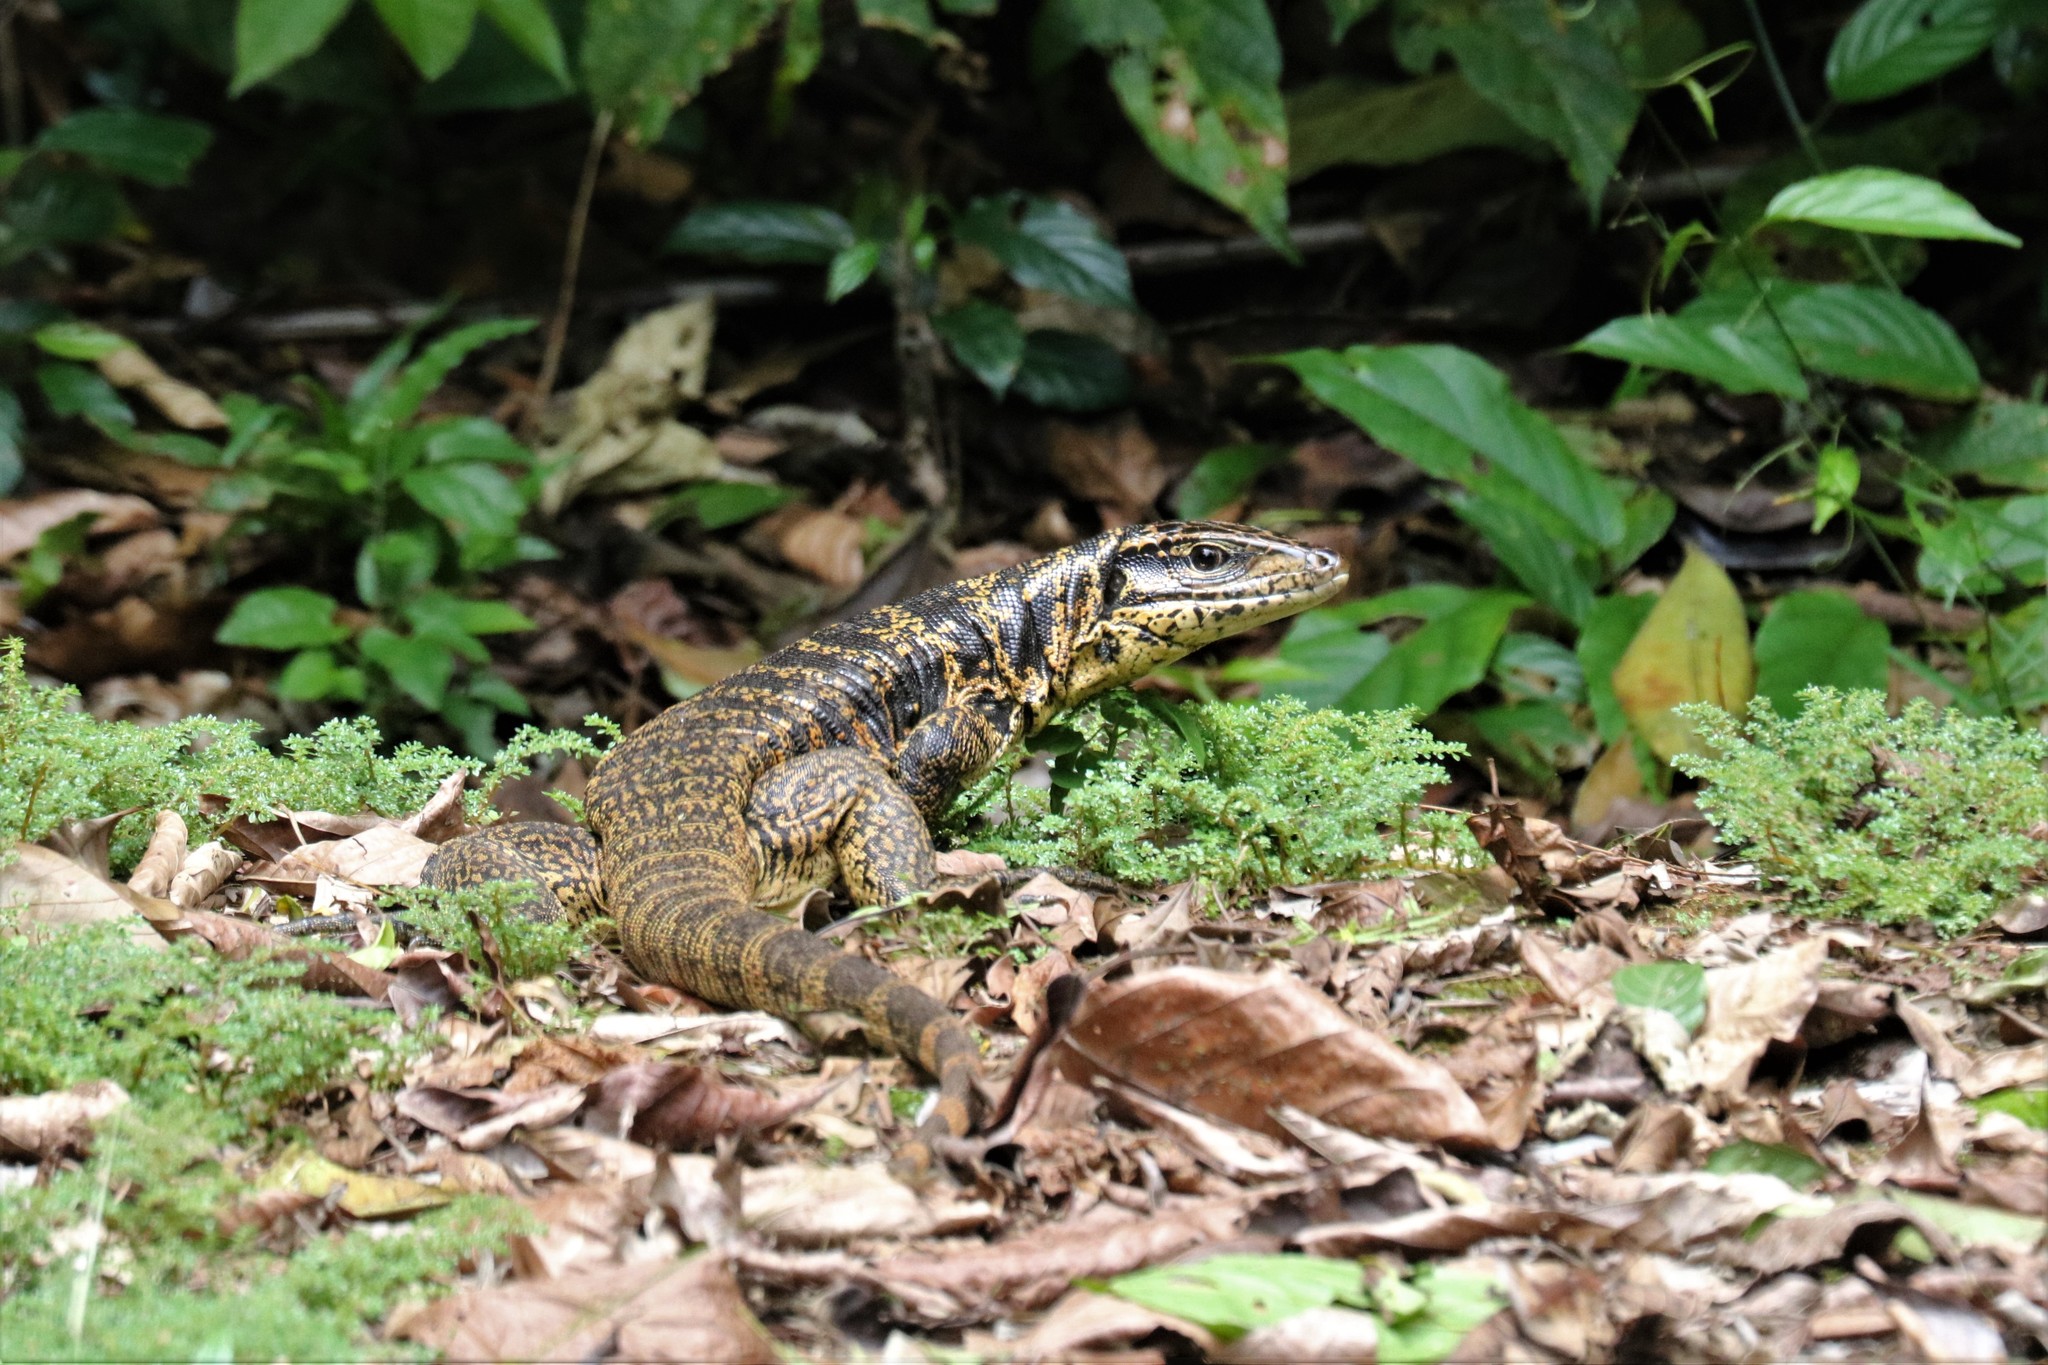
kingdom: Animalia
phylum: Chordata
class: Squamata
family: Teiidae
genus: Tupinambis
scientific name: Tupinambis teguixin
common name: Black tegu
